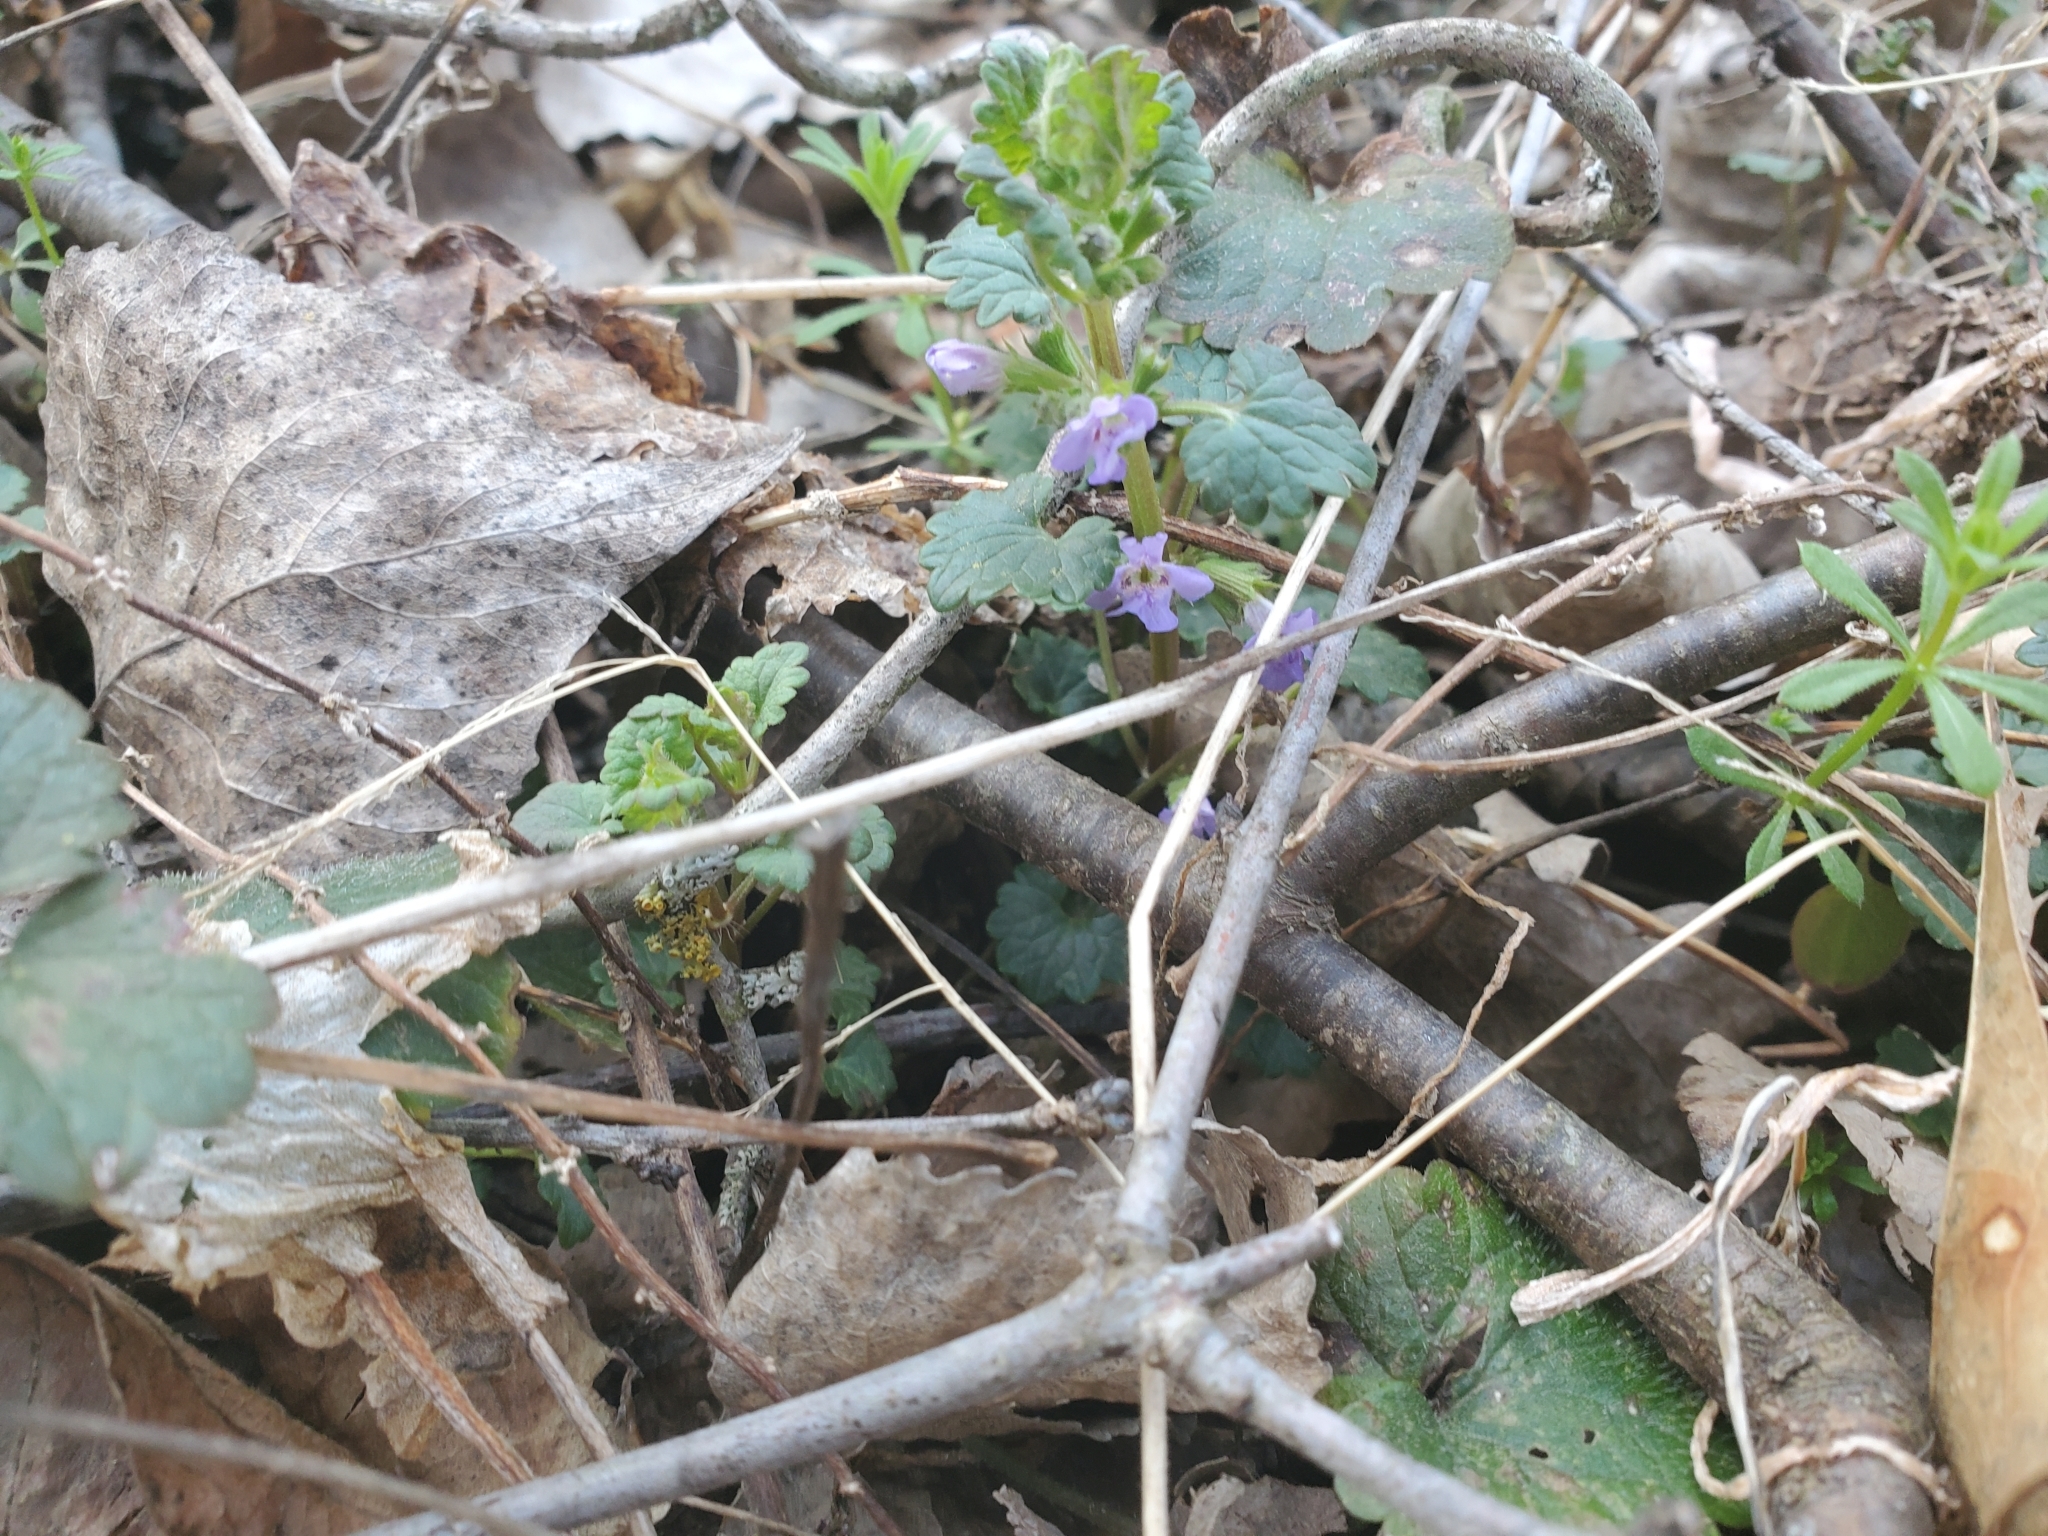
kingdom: Plantae
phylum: Tracheophyta
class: Magnoliopsida
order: Lamiales
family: Lamiaceae
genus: Glechoma
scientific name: Glechoma hederacea
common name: Ground ivy
